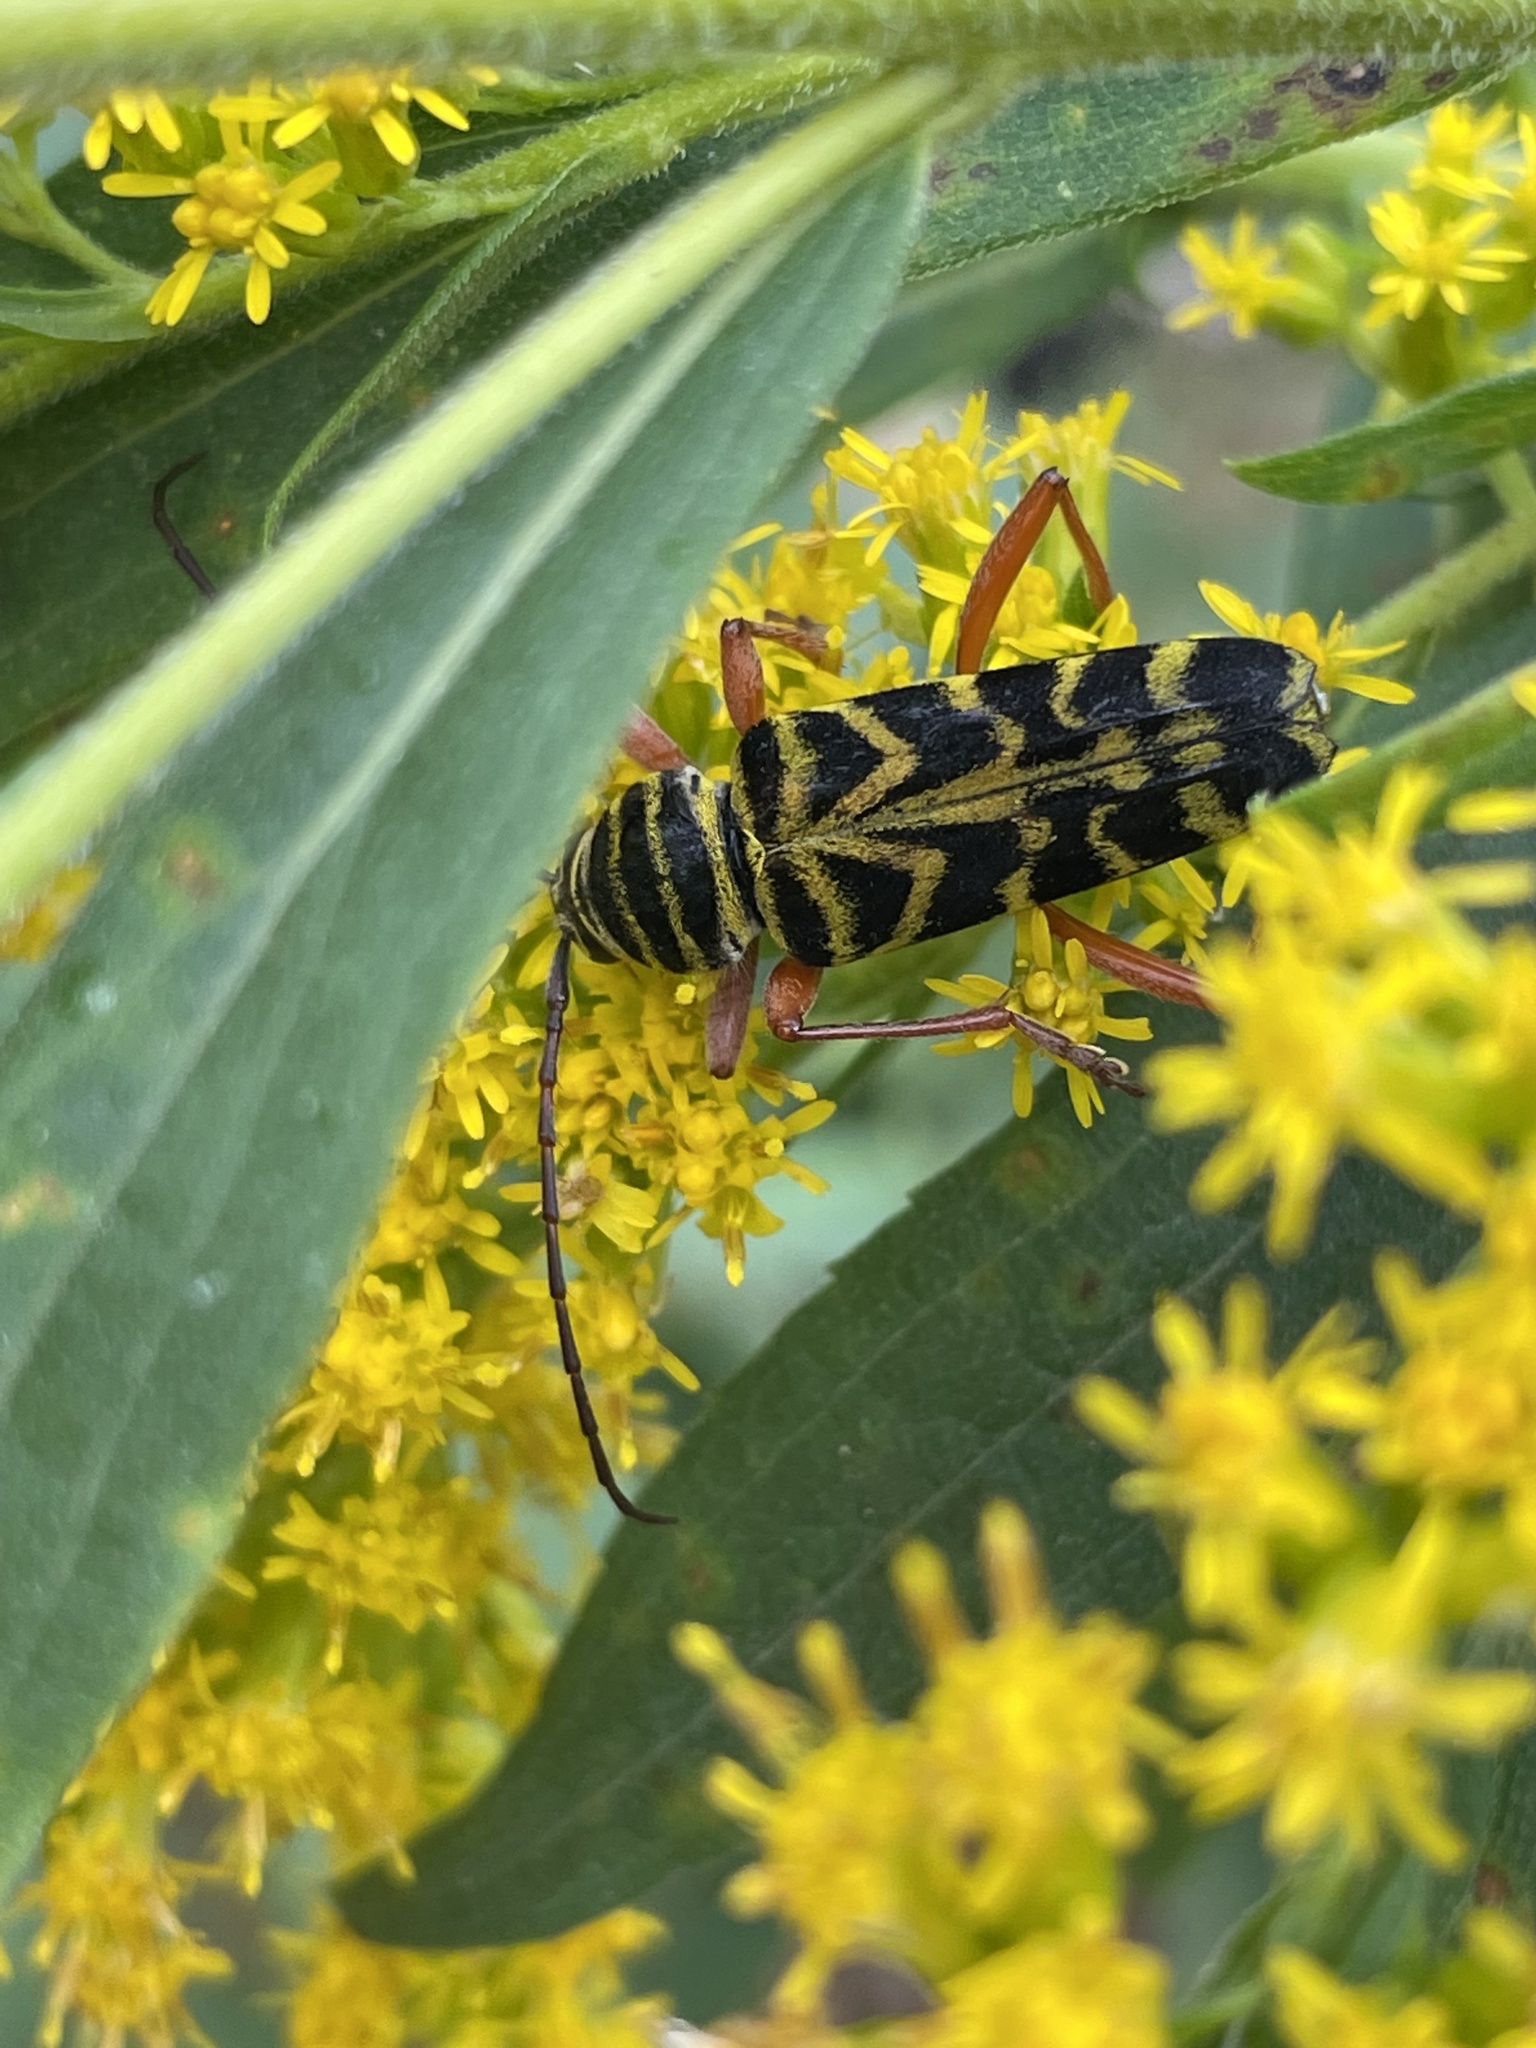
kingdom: Animalia
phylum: Arthropoda
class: Insecta
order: Coleoptera
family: Cerambycidae
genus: Megacyllene
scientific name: Megacyllene robiniae
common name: Locust borer
